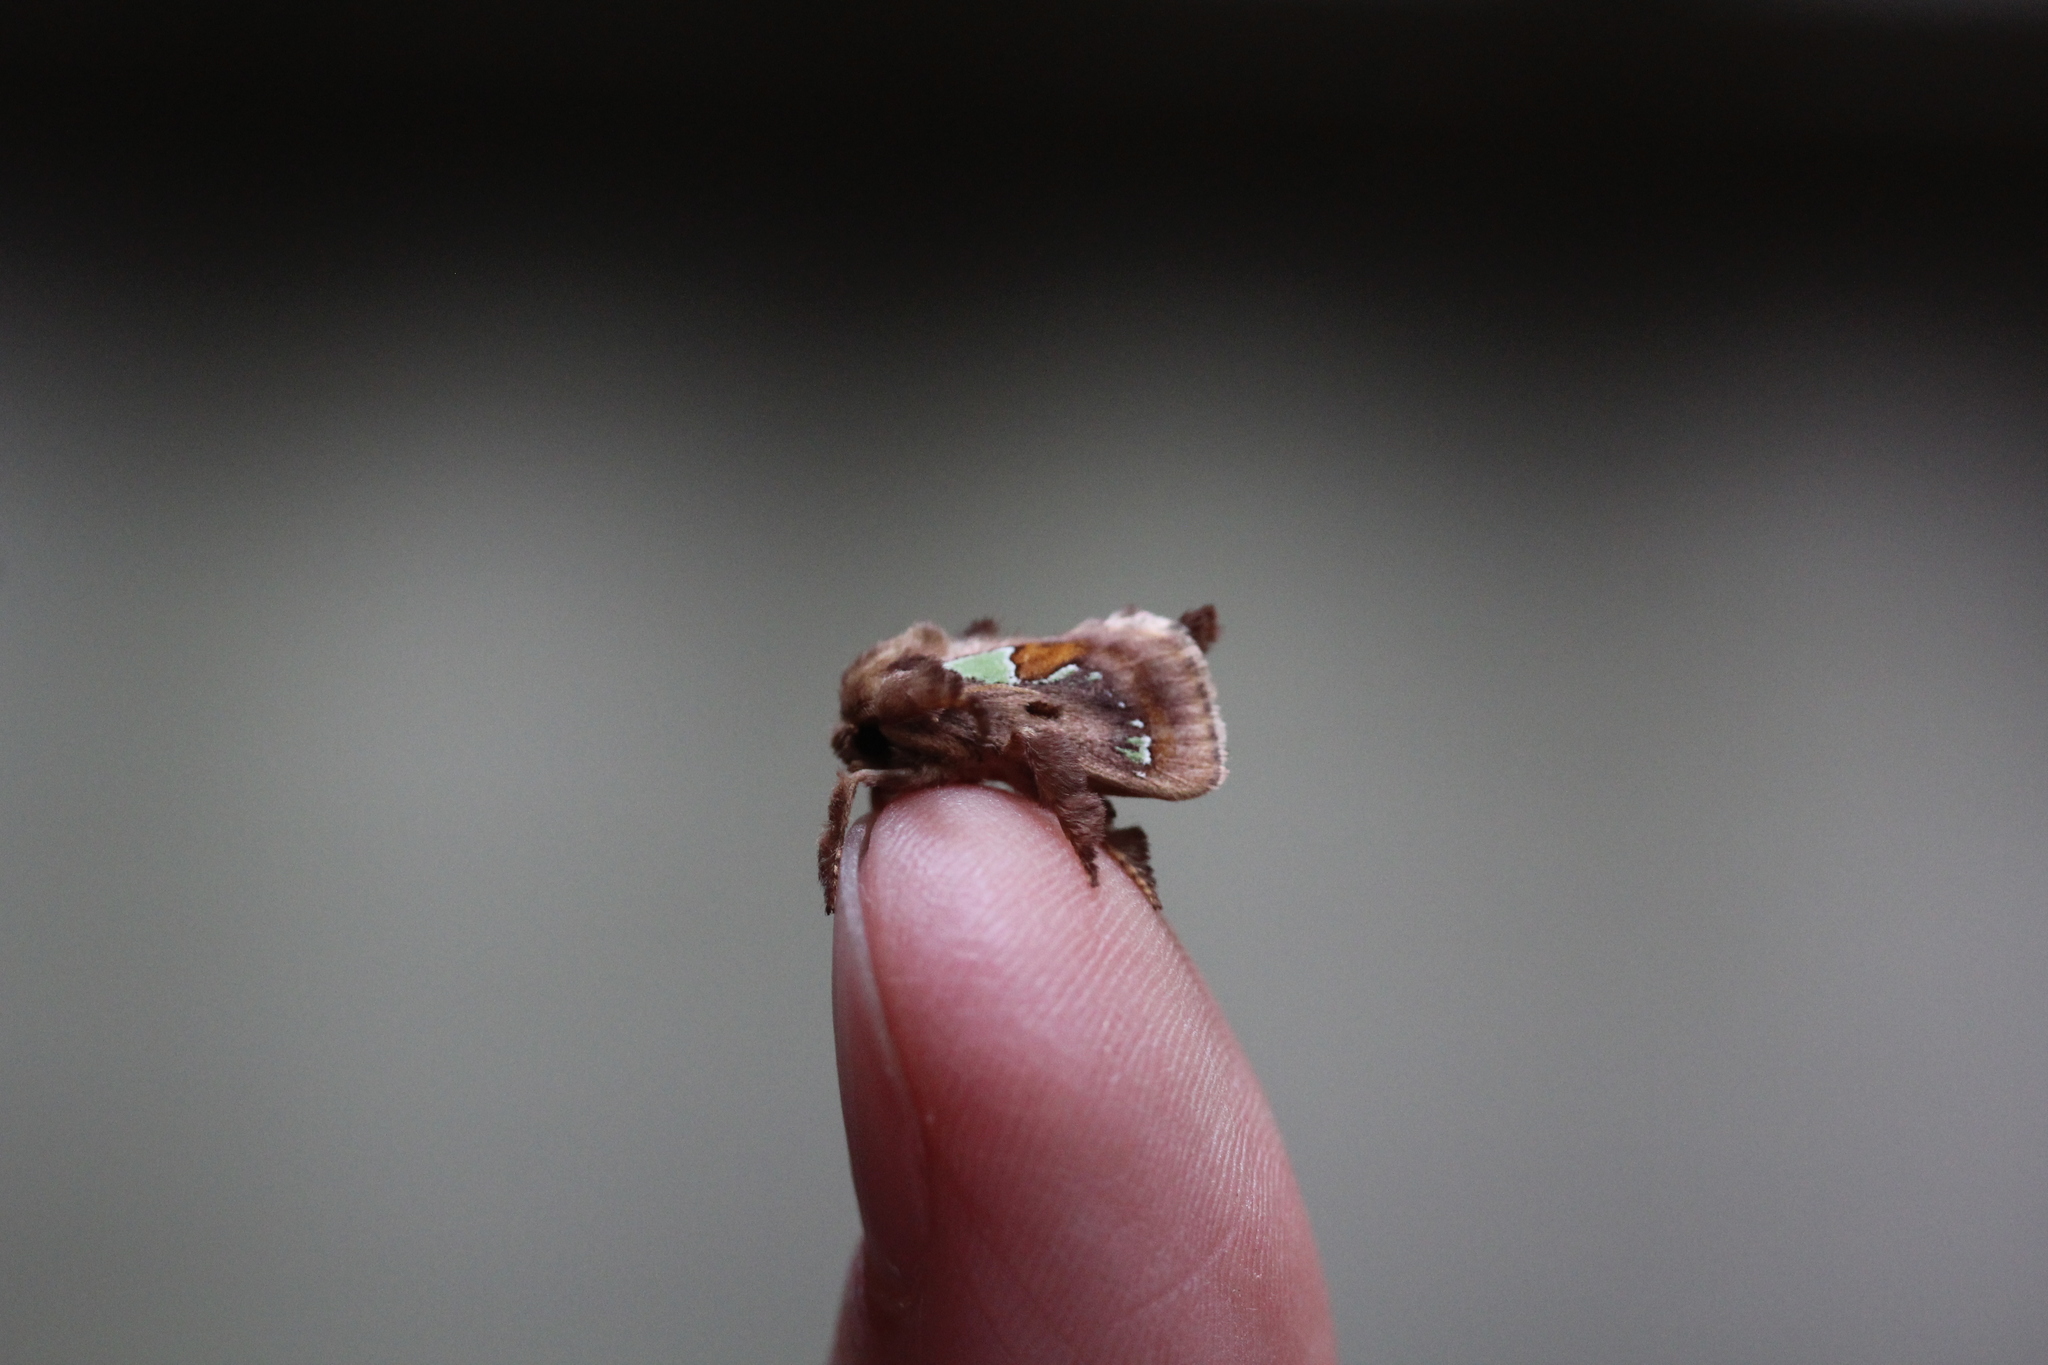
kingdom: Animalia
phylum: Arthropoda
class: Insecta
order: Lepidoptera
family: Limacodidae
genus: Euclea
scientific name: Euclea delphinii
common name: Spiny oak-slug moth
